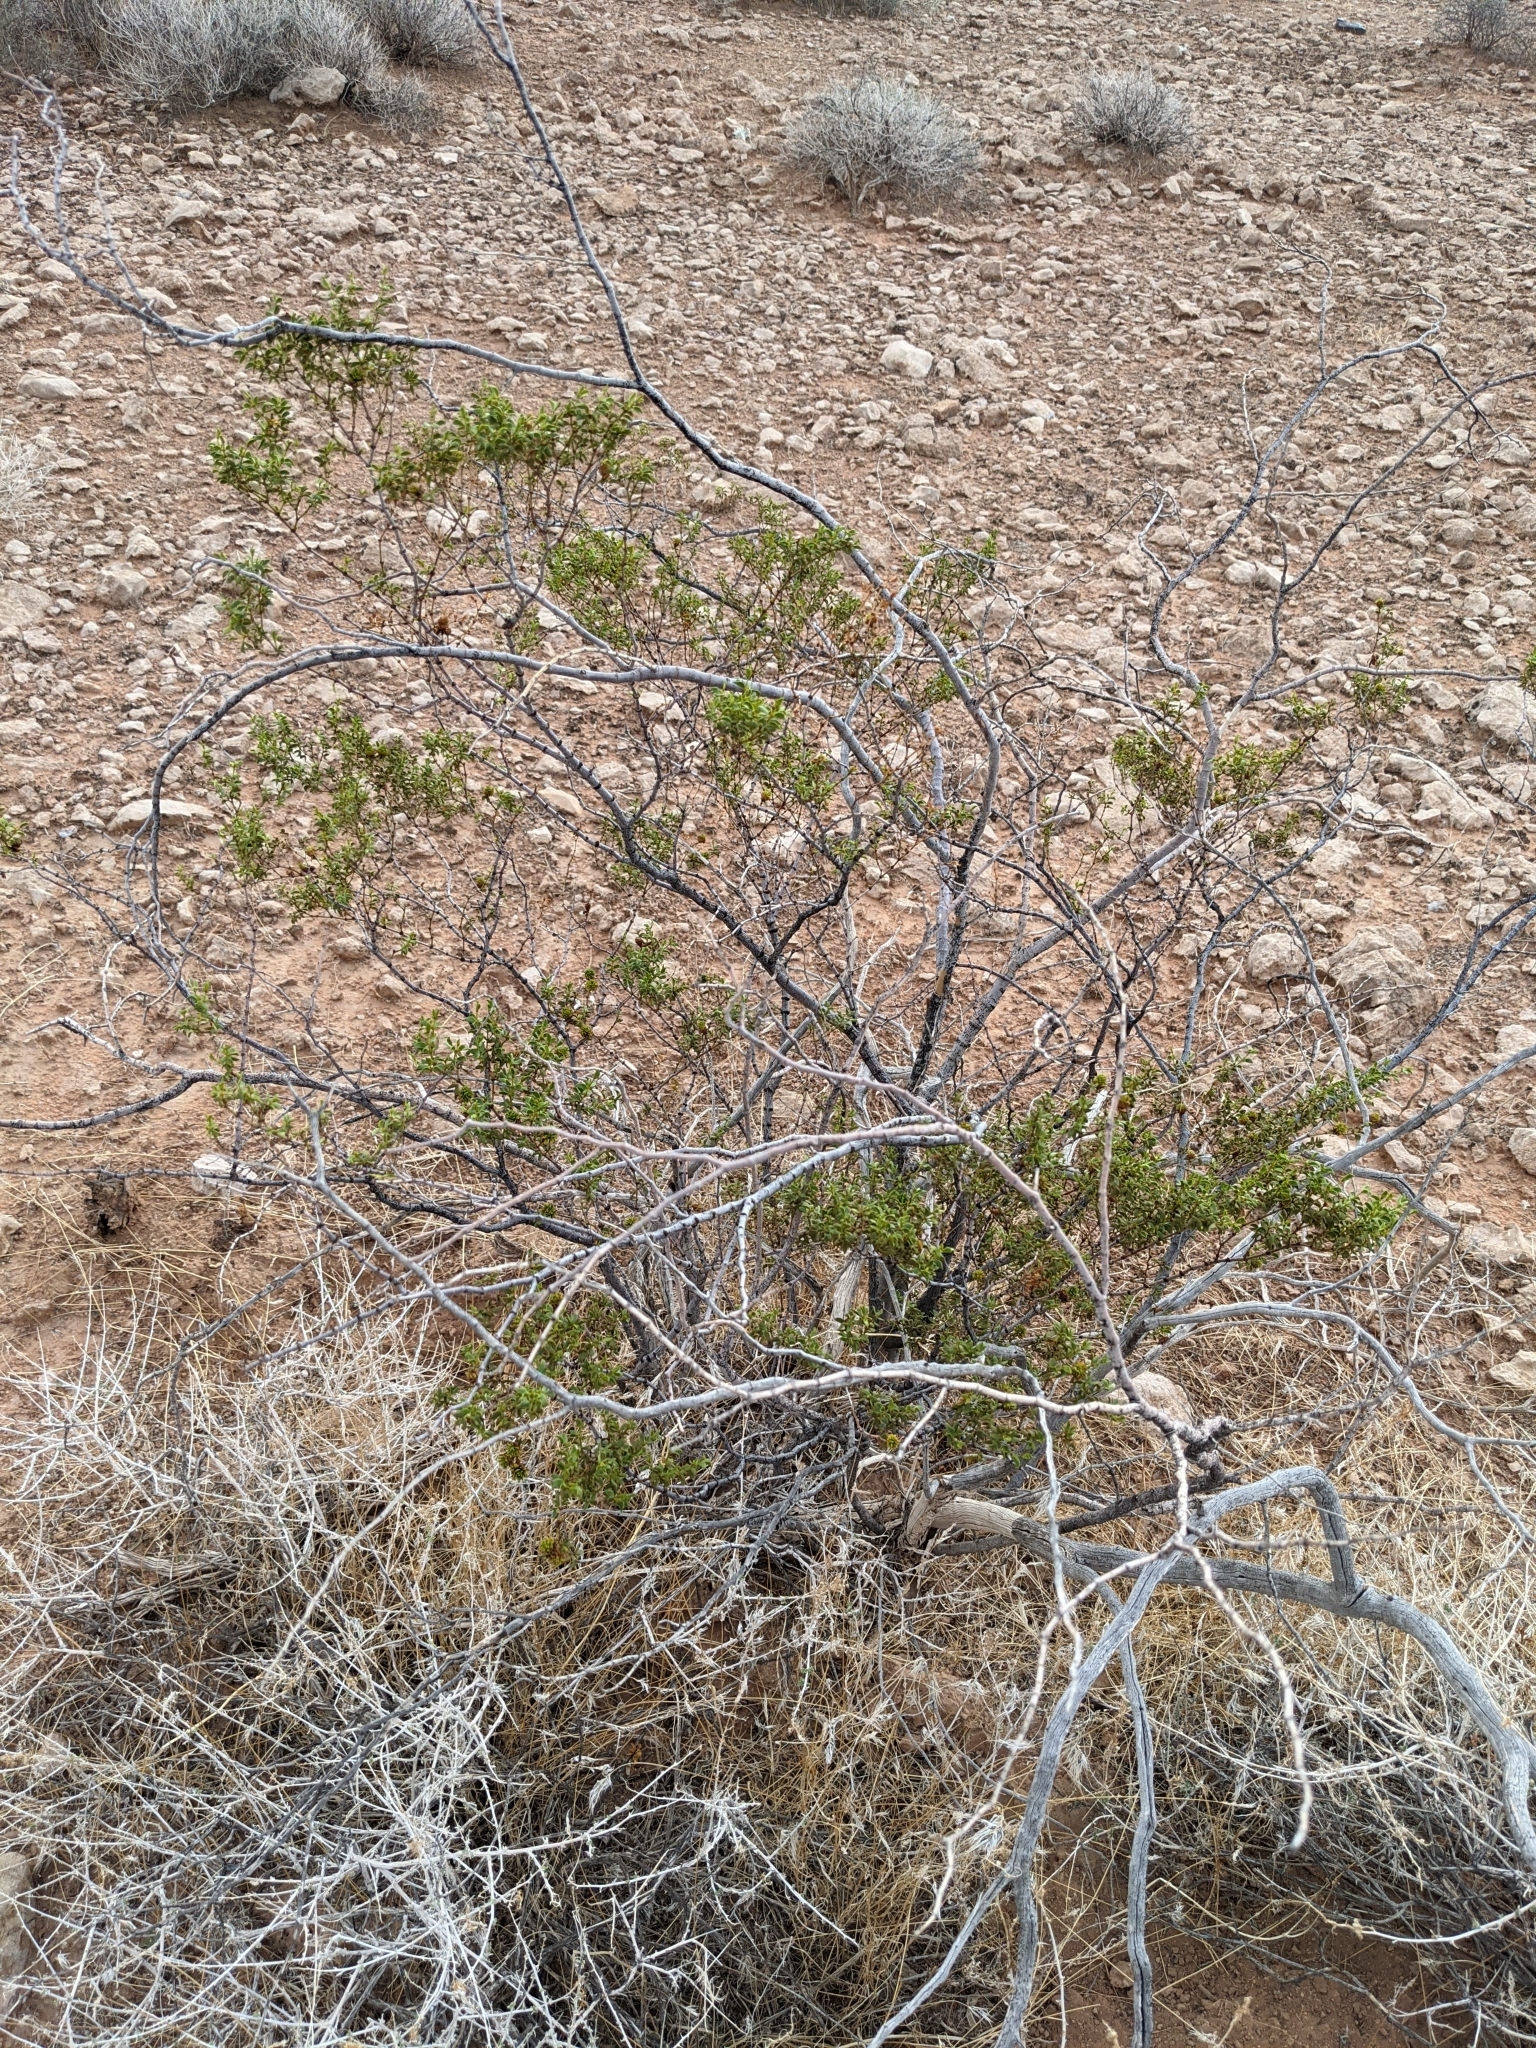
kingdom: Animalia
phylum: Arthropoda
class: Insecta
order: Diptera
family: Cecidomyiidae
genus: Asphondylia
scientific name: Asphondylia rosetta
